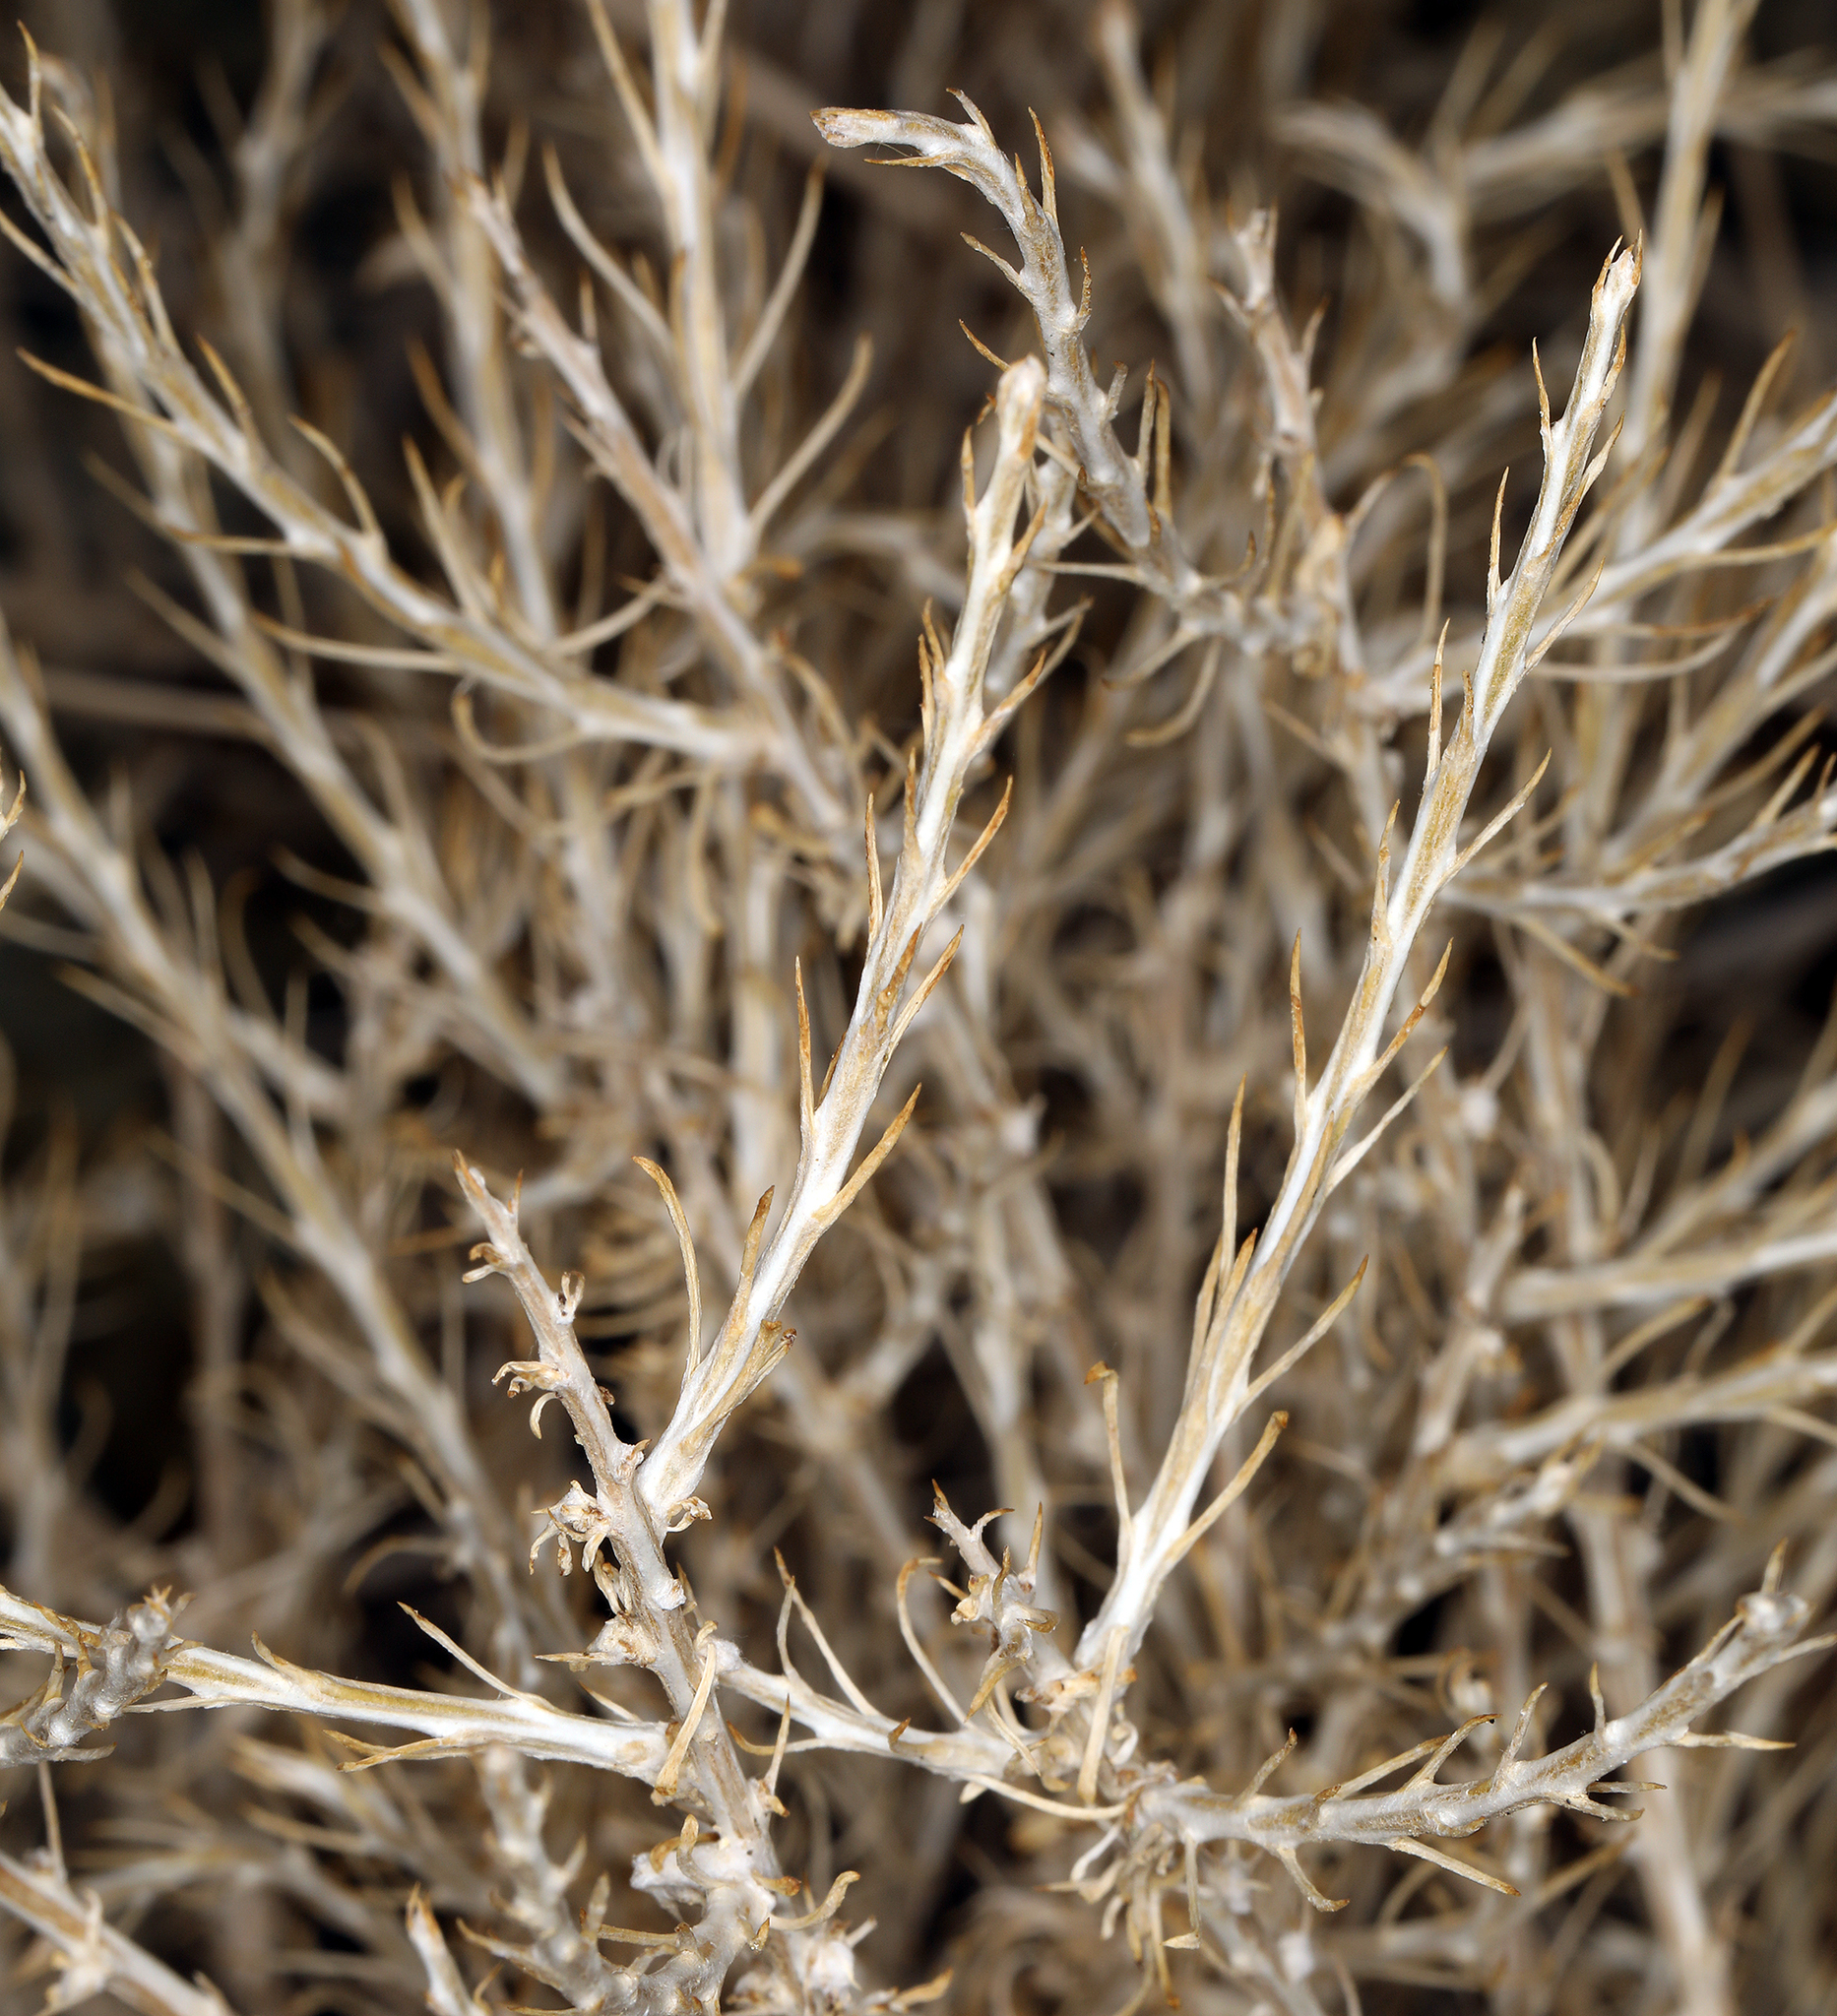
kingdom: Plantae
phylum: Tracheophyta
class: Magnoliopsida
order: Asterales
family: Asteraceae
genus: Tetradymia
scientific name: Tetradymia glabrata
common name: Smooth tetradymia
